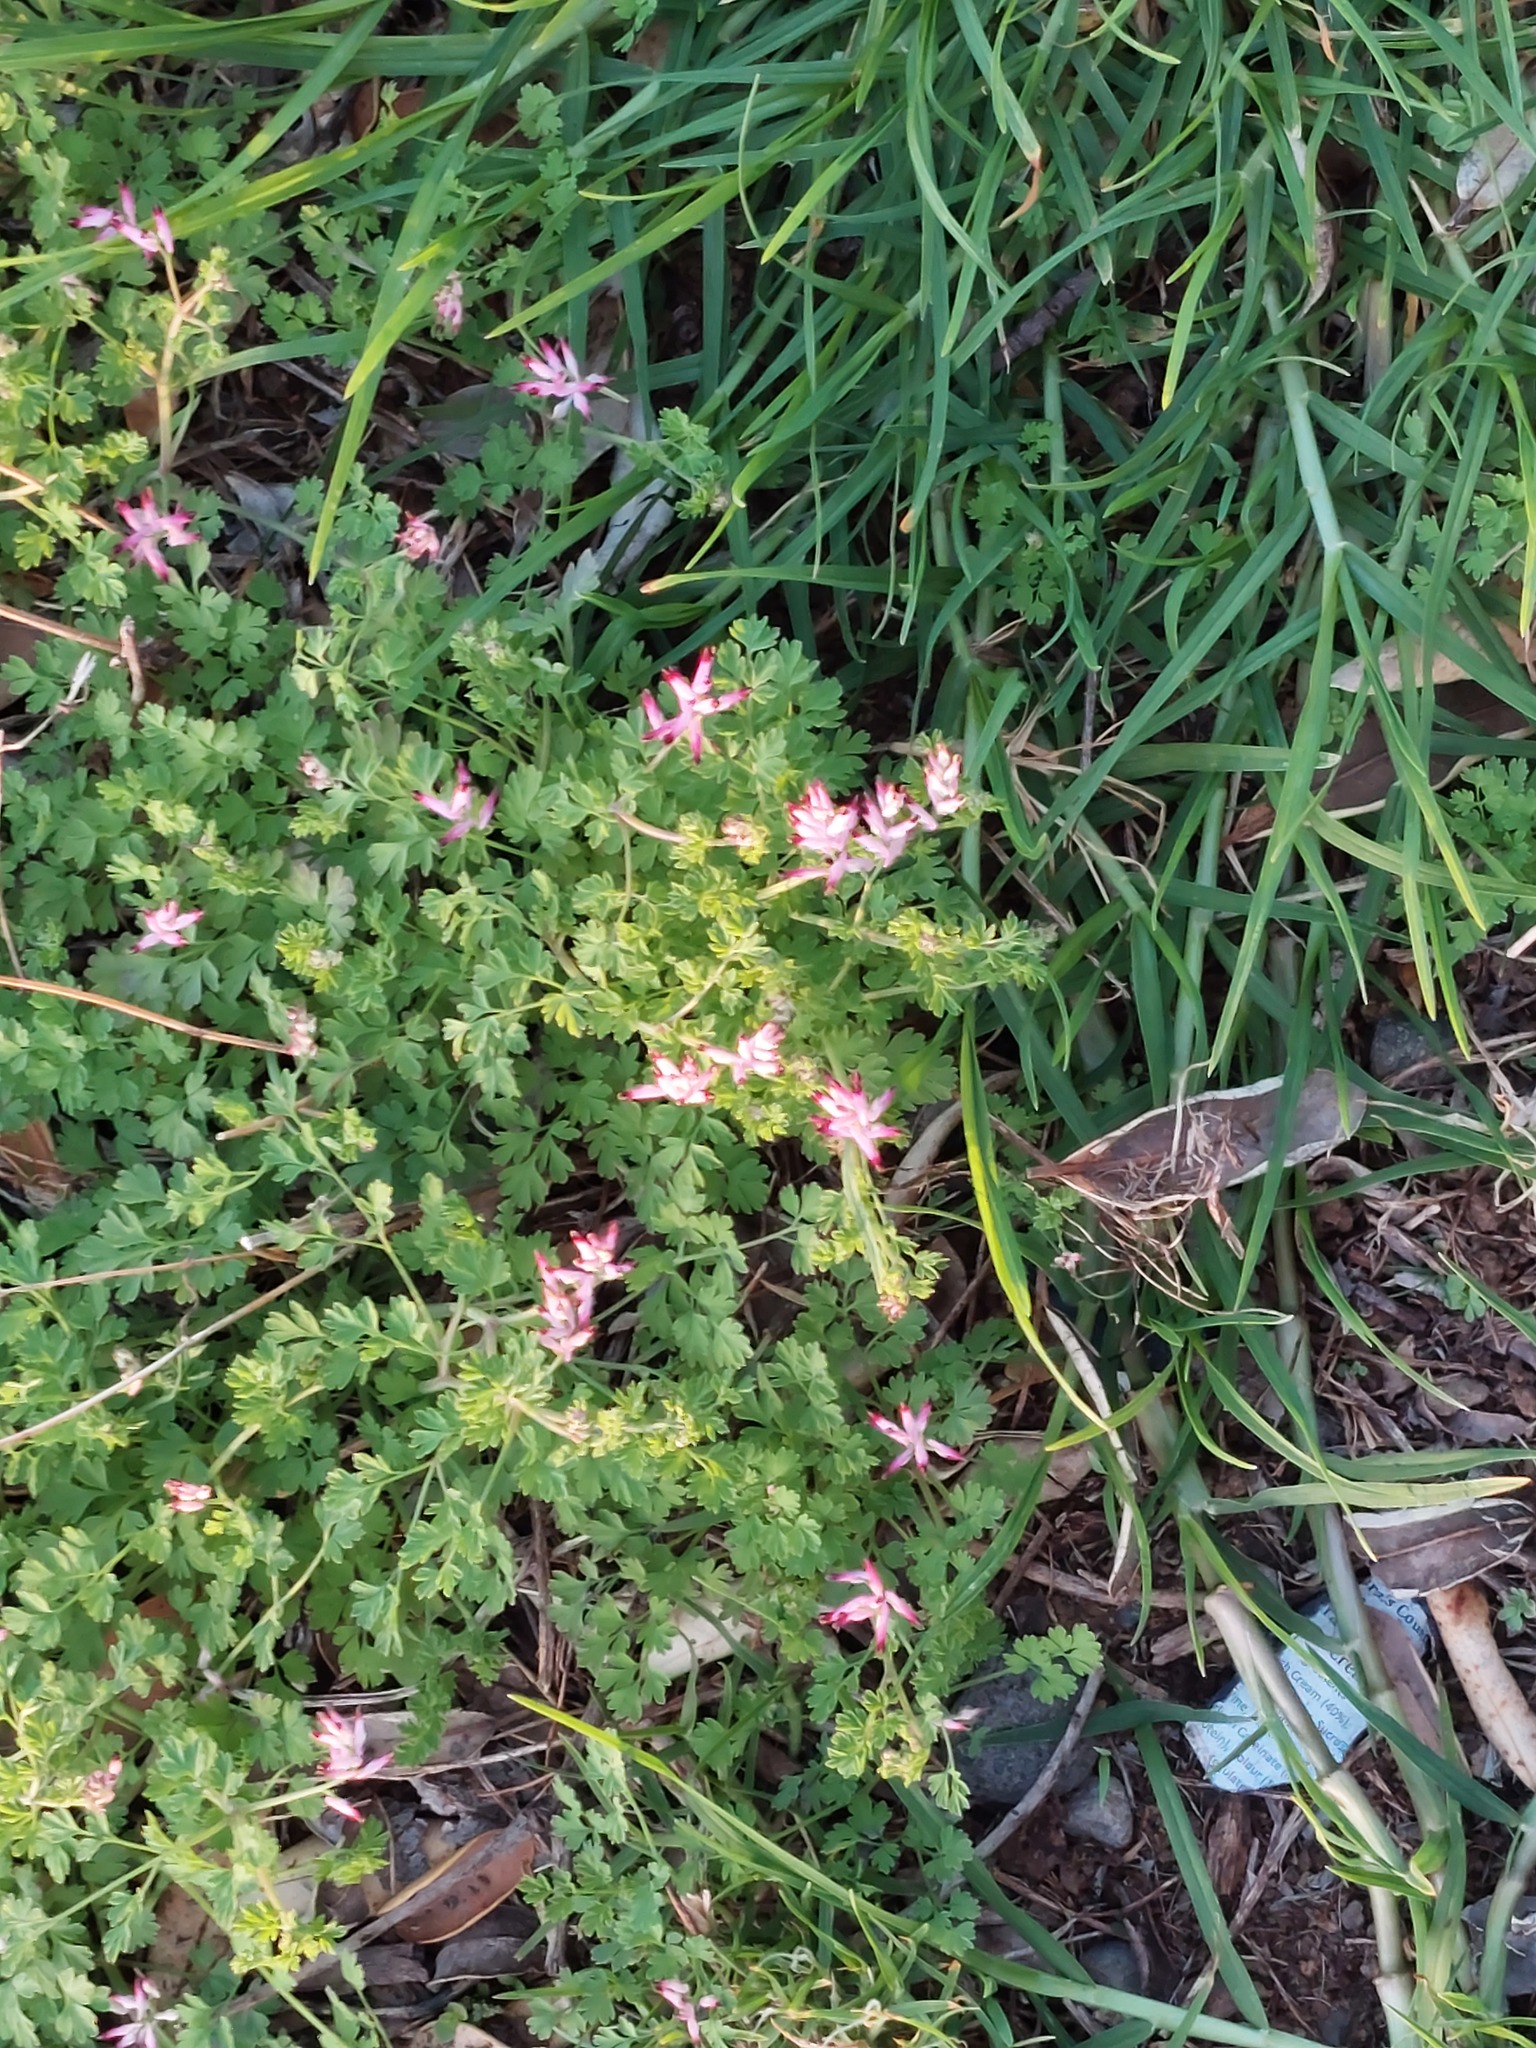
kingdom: Plantae
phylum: Tracheophyta
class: Magnoliopsida
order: Ranunculales
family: Papaveraceae
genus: Fumaria
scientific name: Fumaria muralis
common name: Common ramping-fumitory
